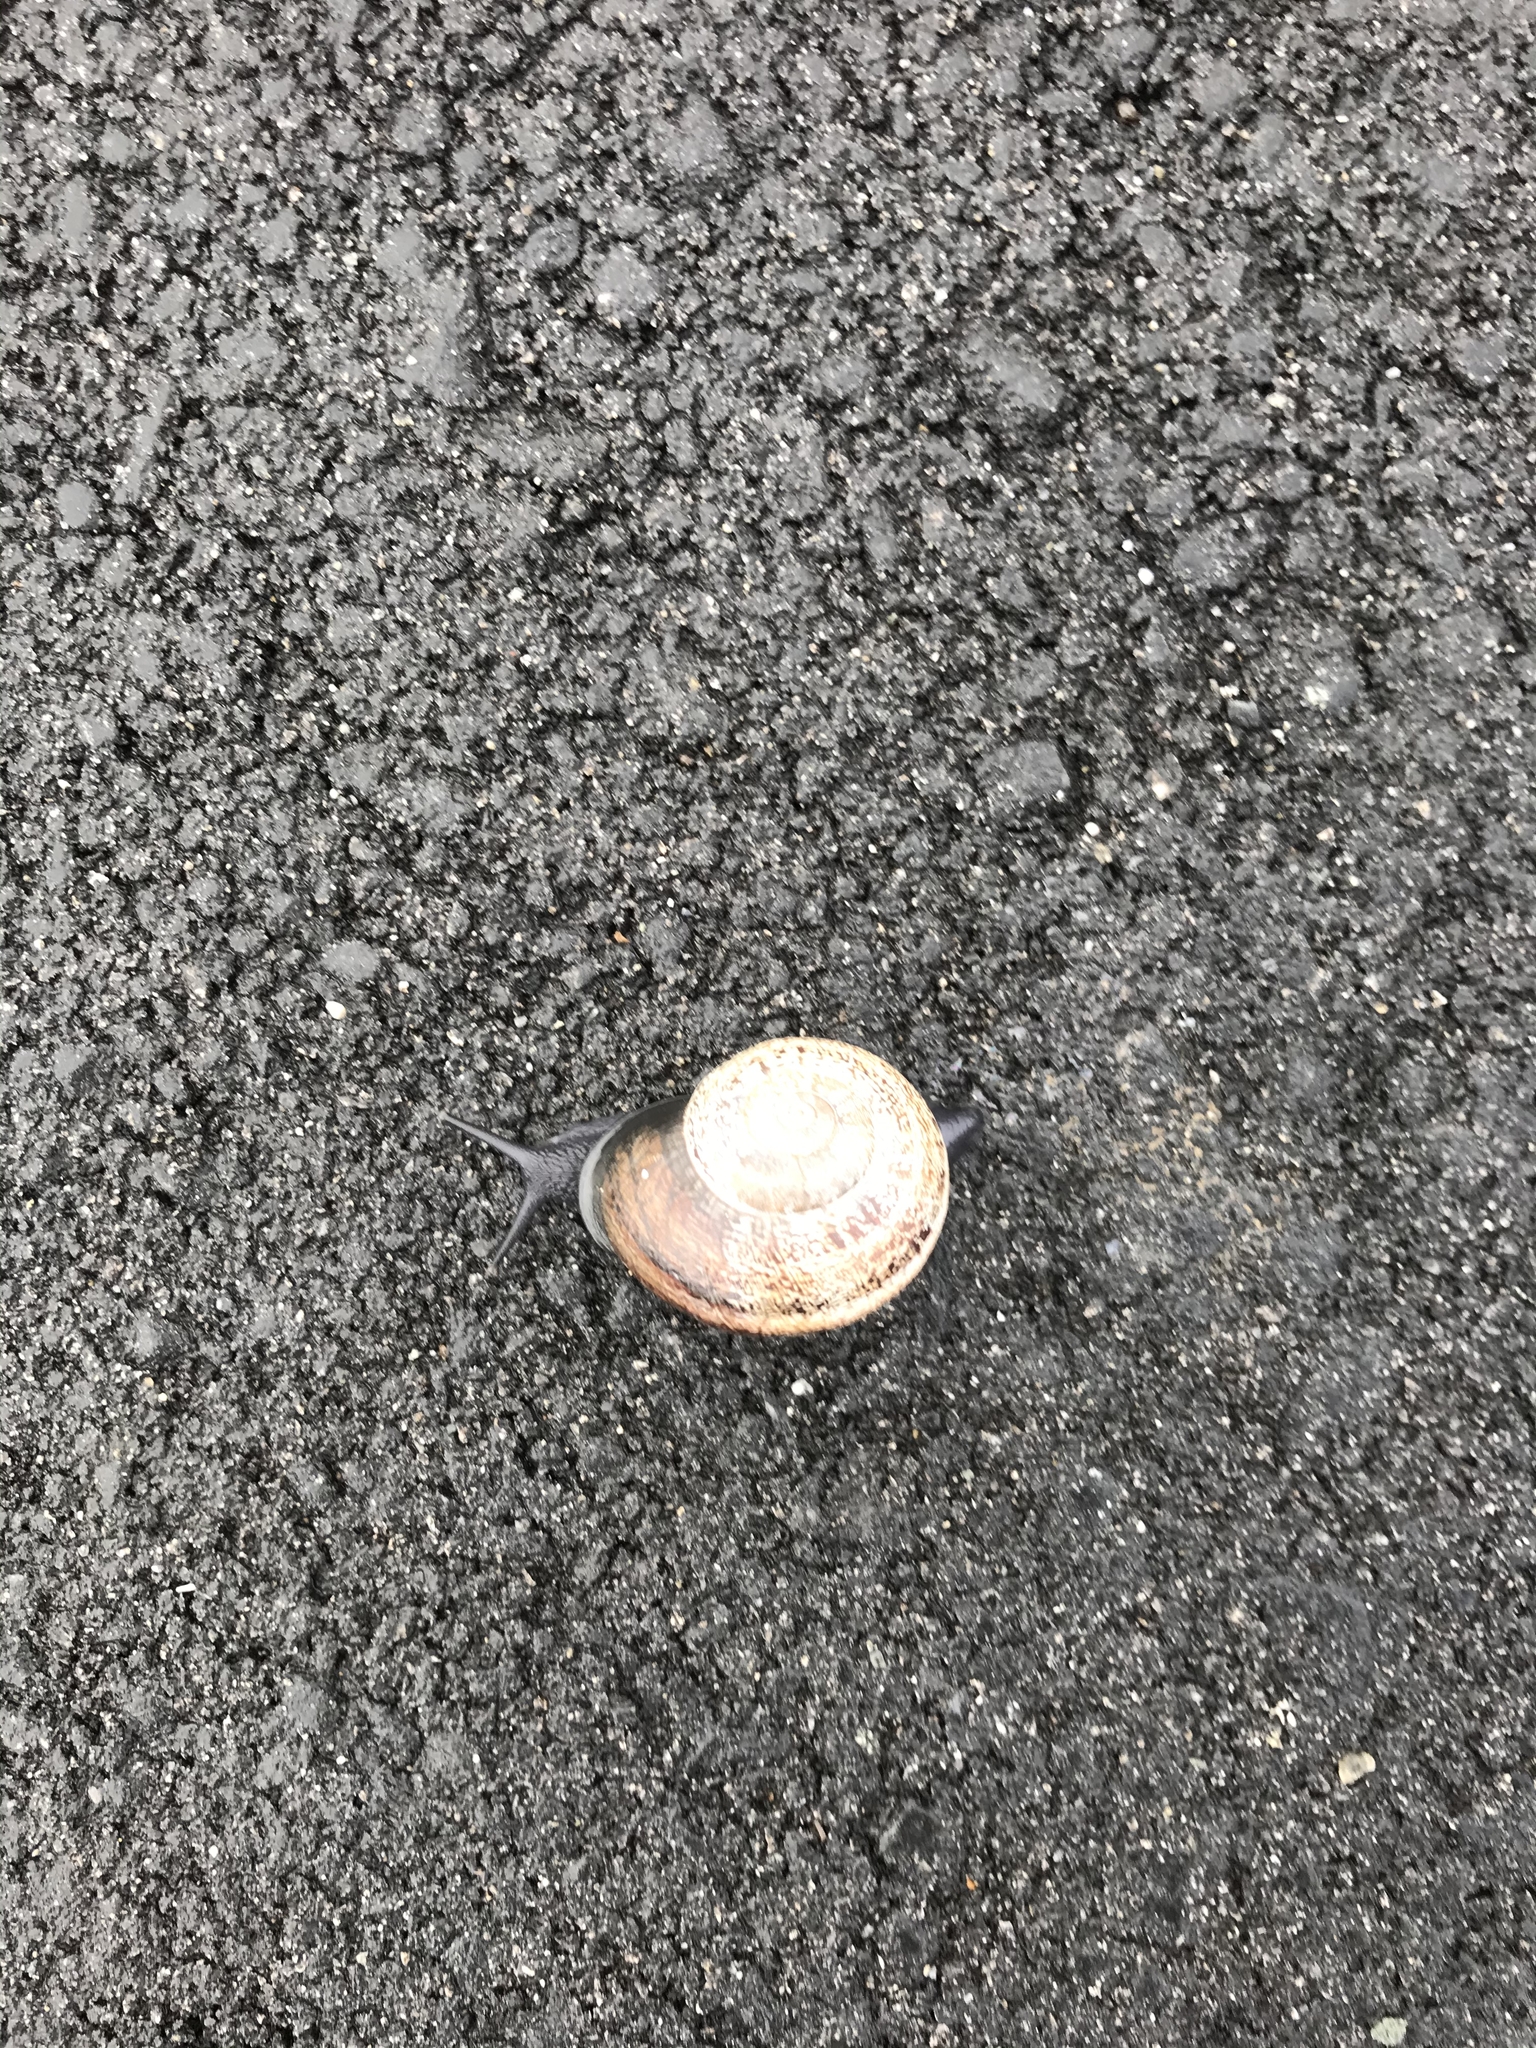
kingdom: Animalia
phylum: Mollusca
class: Gastropoda
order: Stylommatophora
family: Helicidae
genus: Otala
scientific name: Otala lactea
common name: Milk snail
